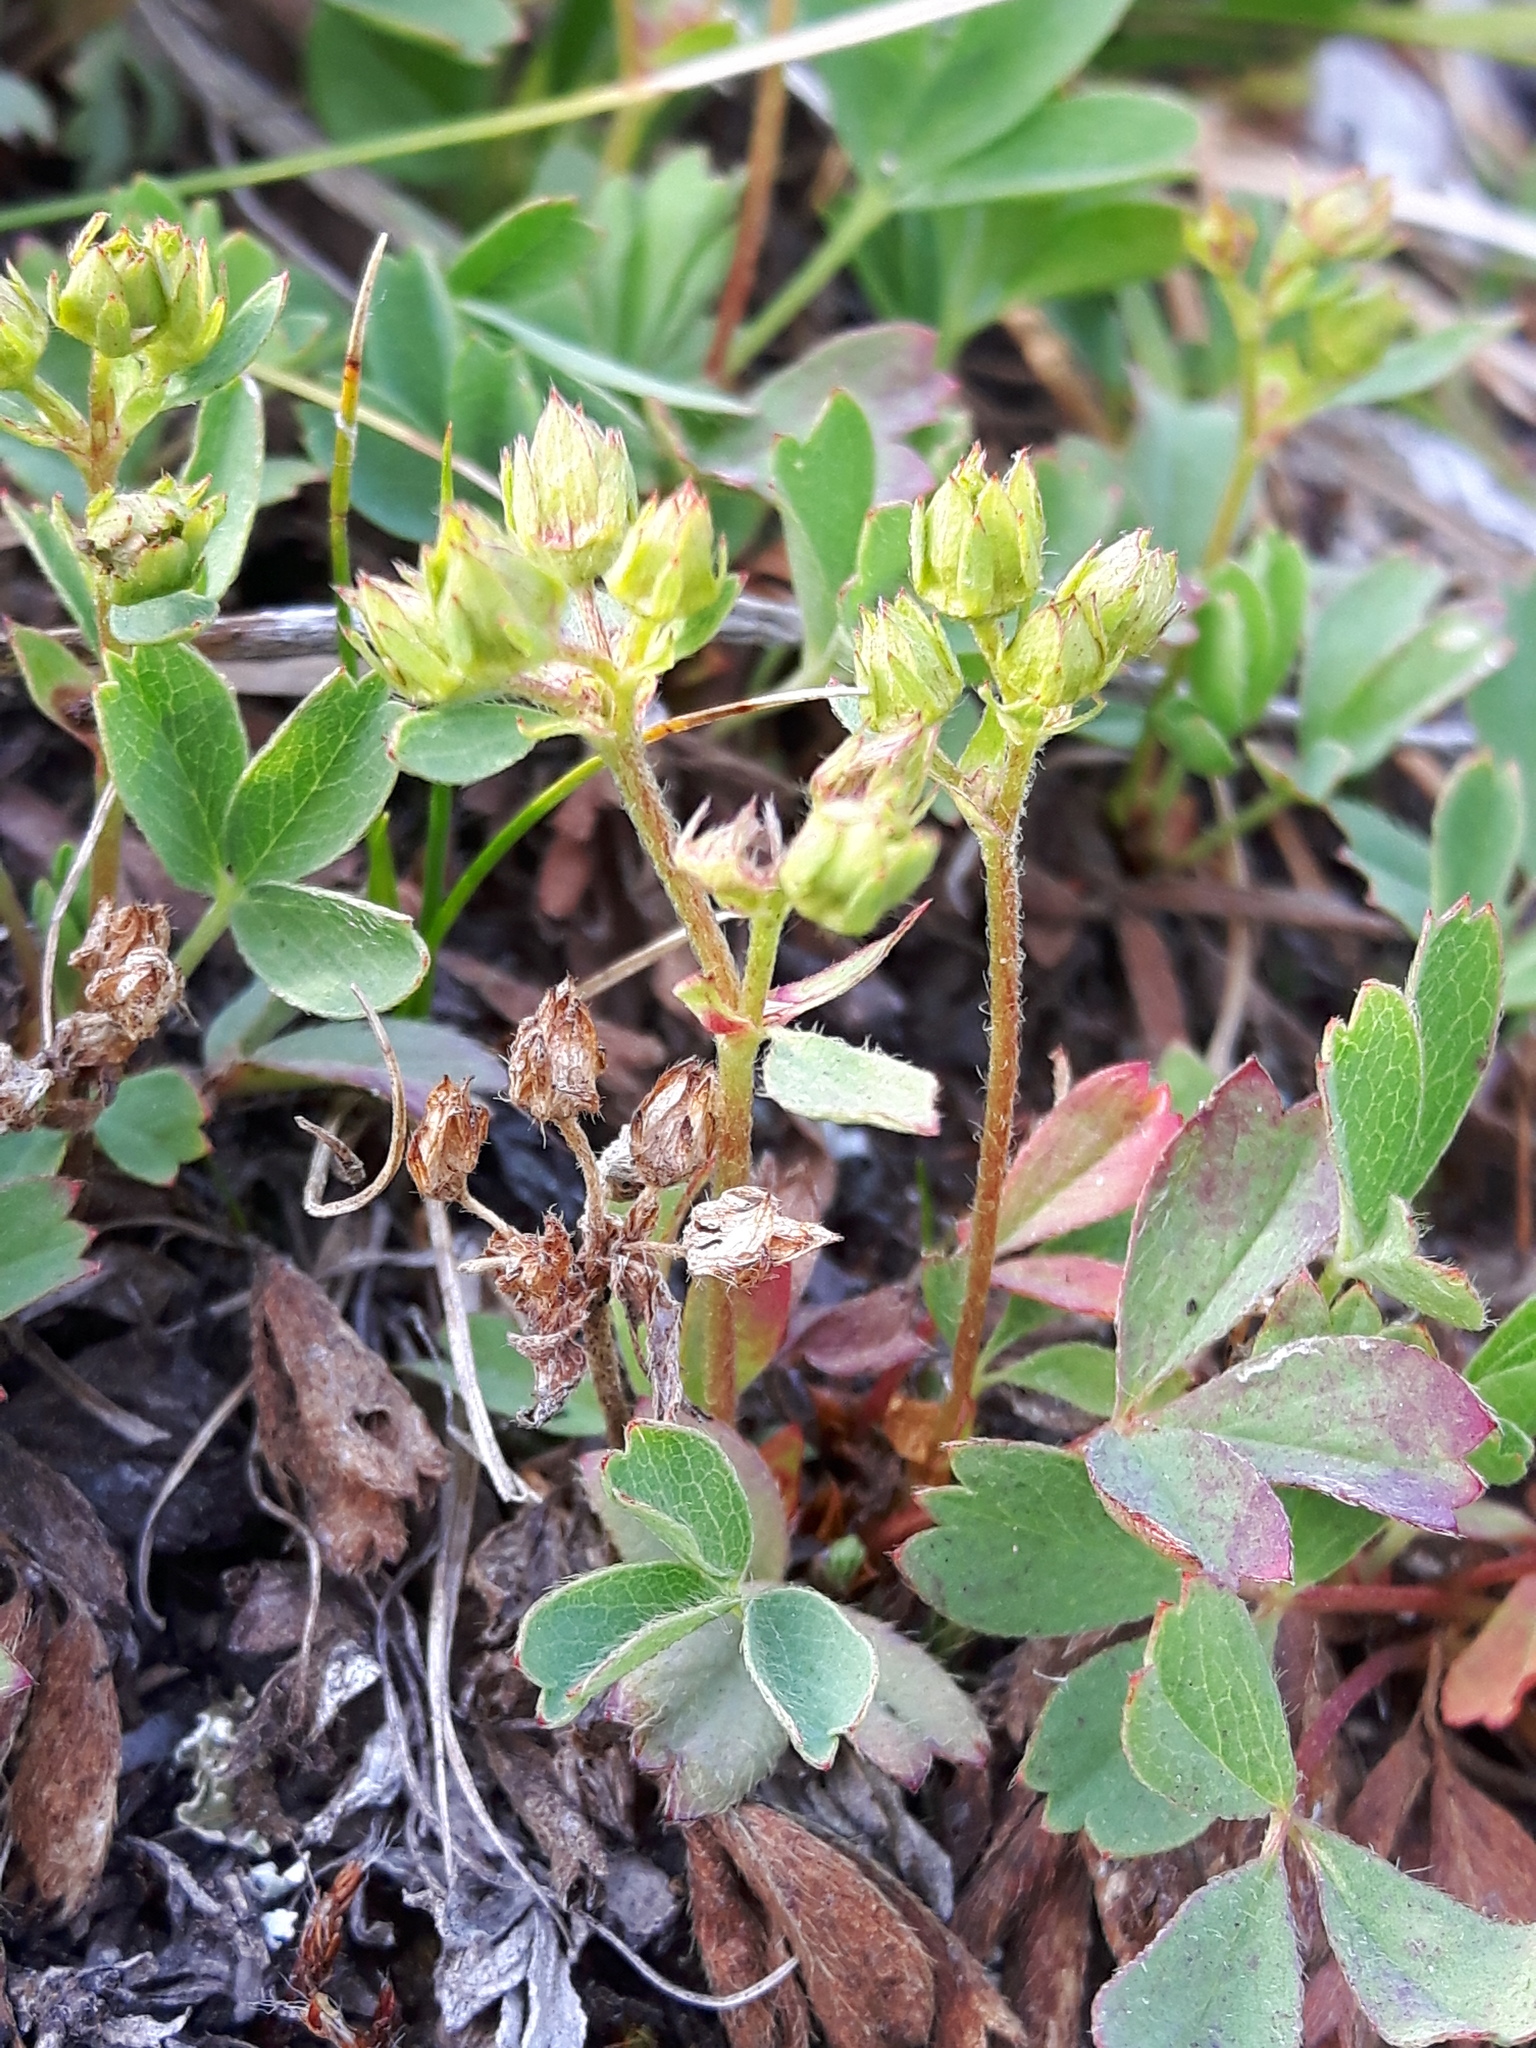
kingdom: Plantae
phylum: Tracheophyta
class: Magnoliopsida
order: Rosales
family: Rosaceae
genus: Sibbaldia
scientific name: Sibbaldia procumbens
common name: Creeping sibbaldia
